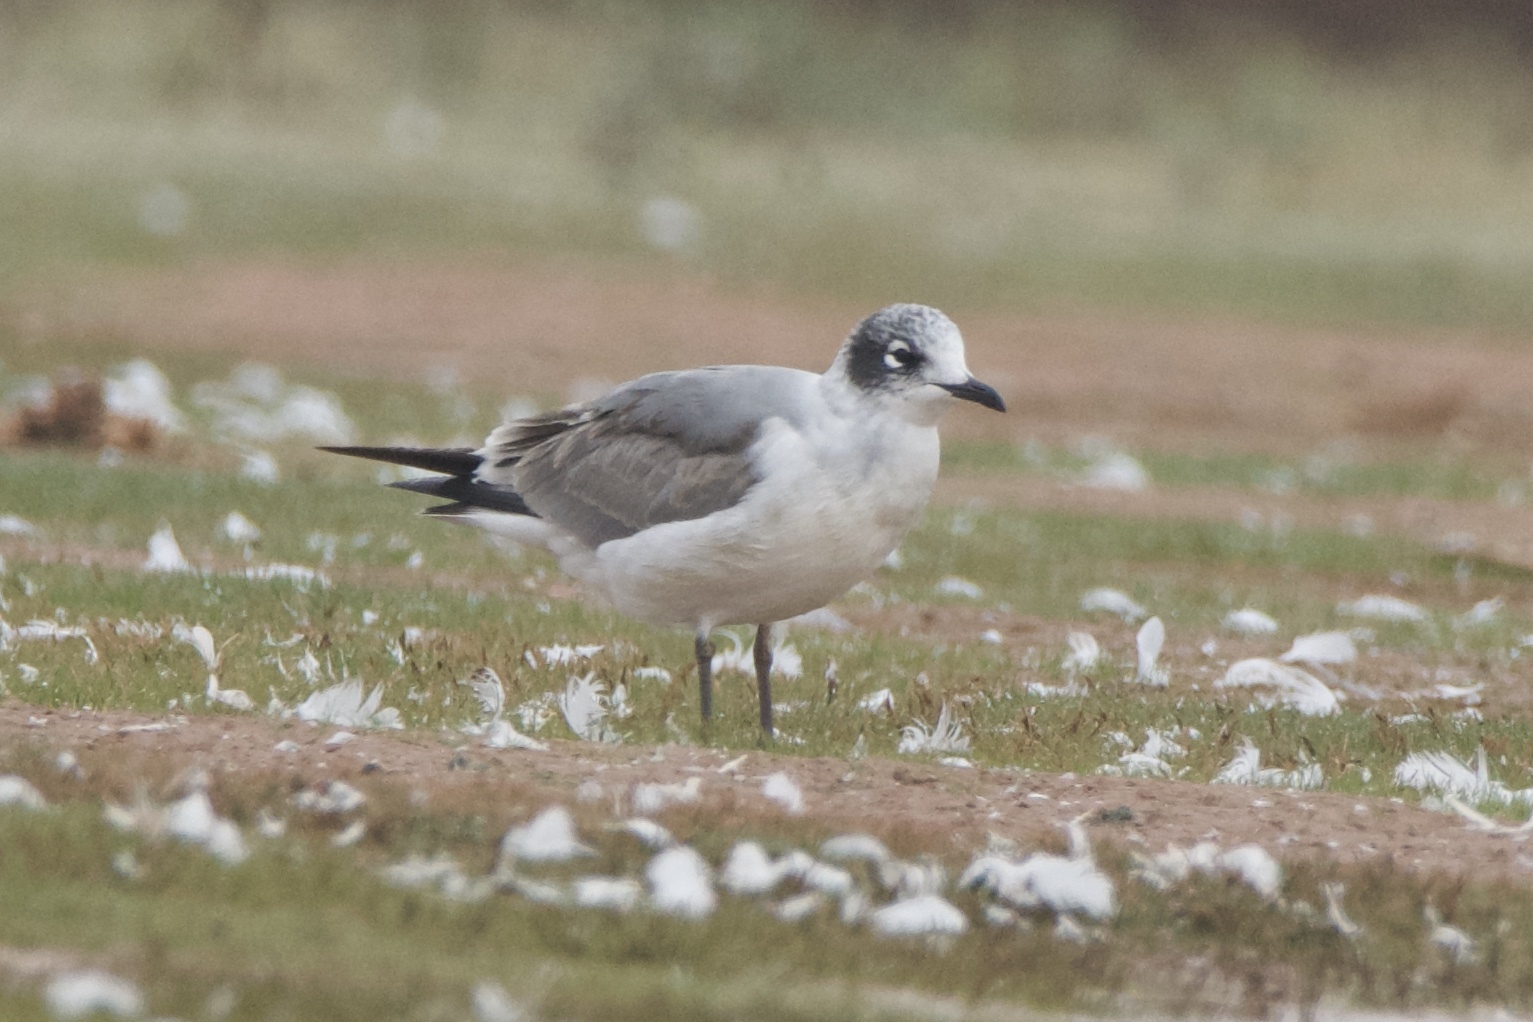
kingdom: Animalia
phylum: Chordata
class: Aves
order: Charadriiformes
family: Laridae
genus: Leucophaeus
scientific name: Leucophaeus pipixcan
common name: Franklin's gull
